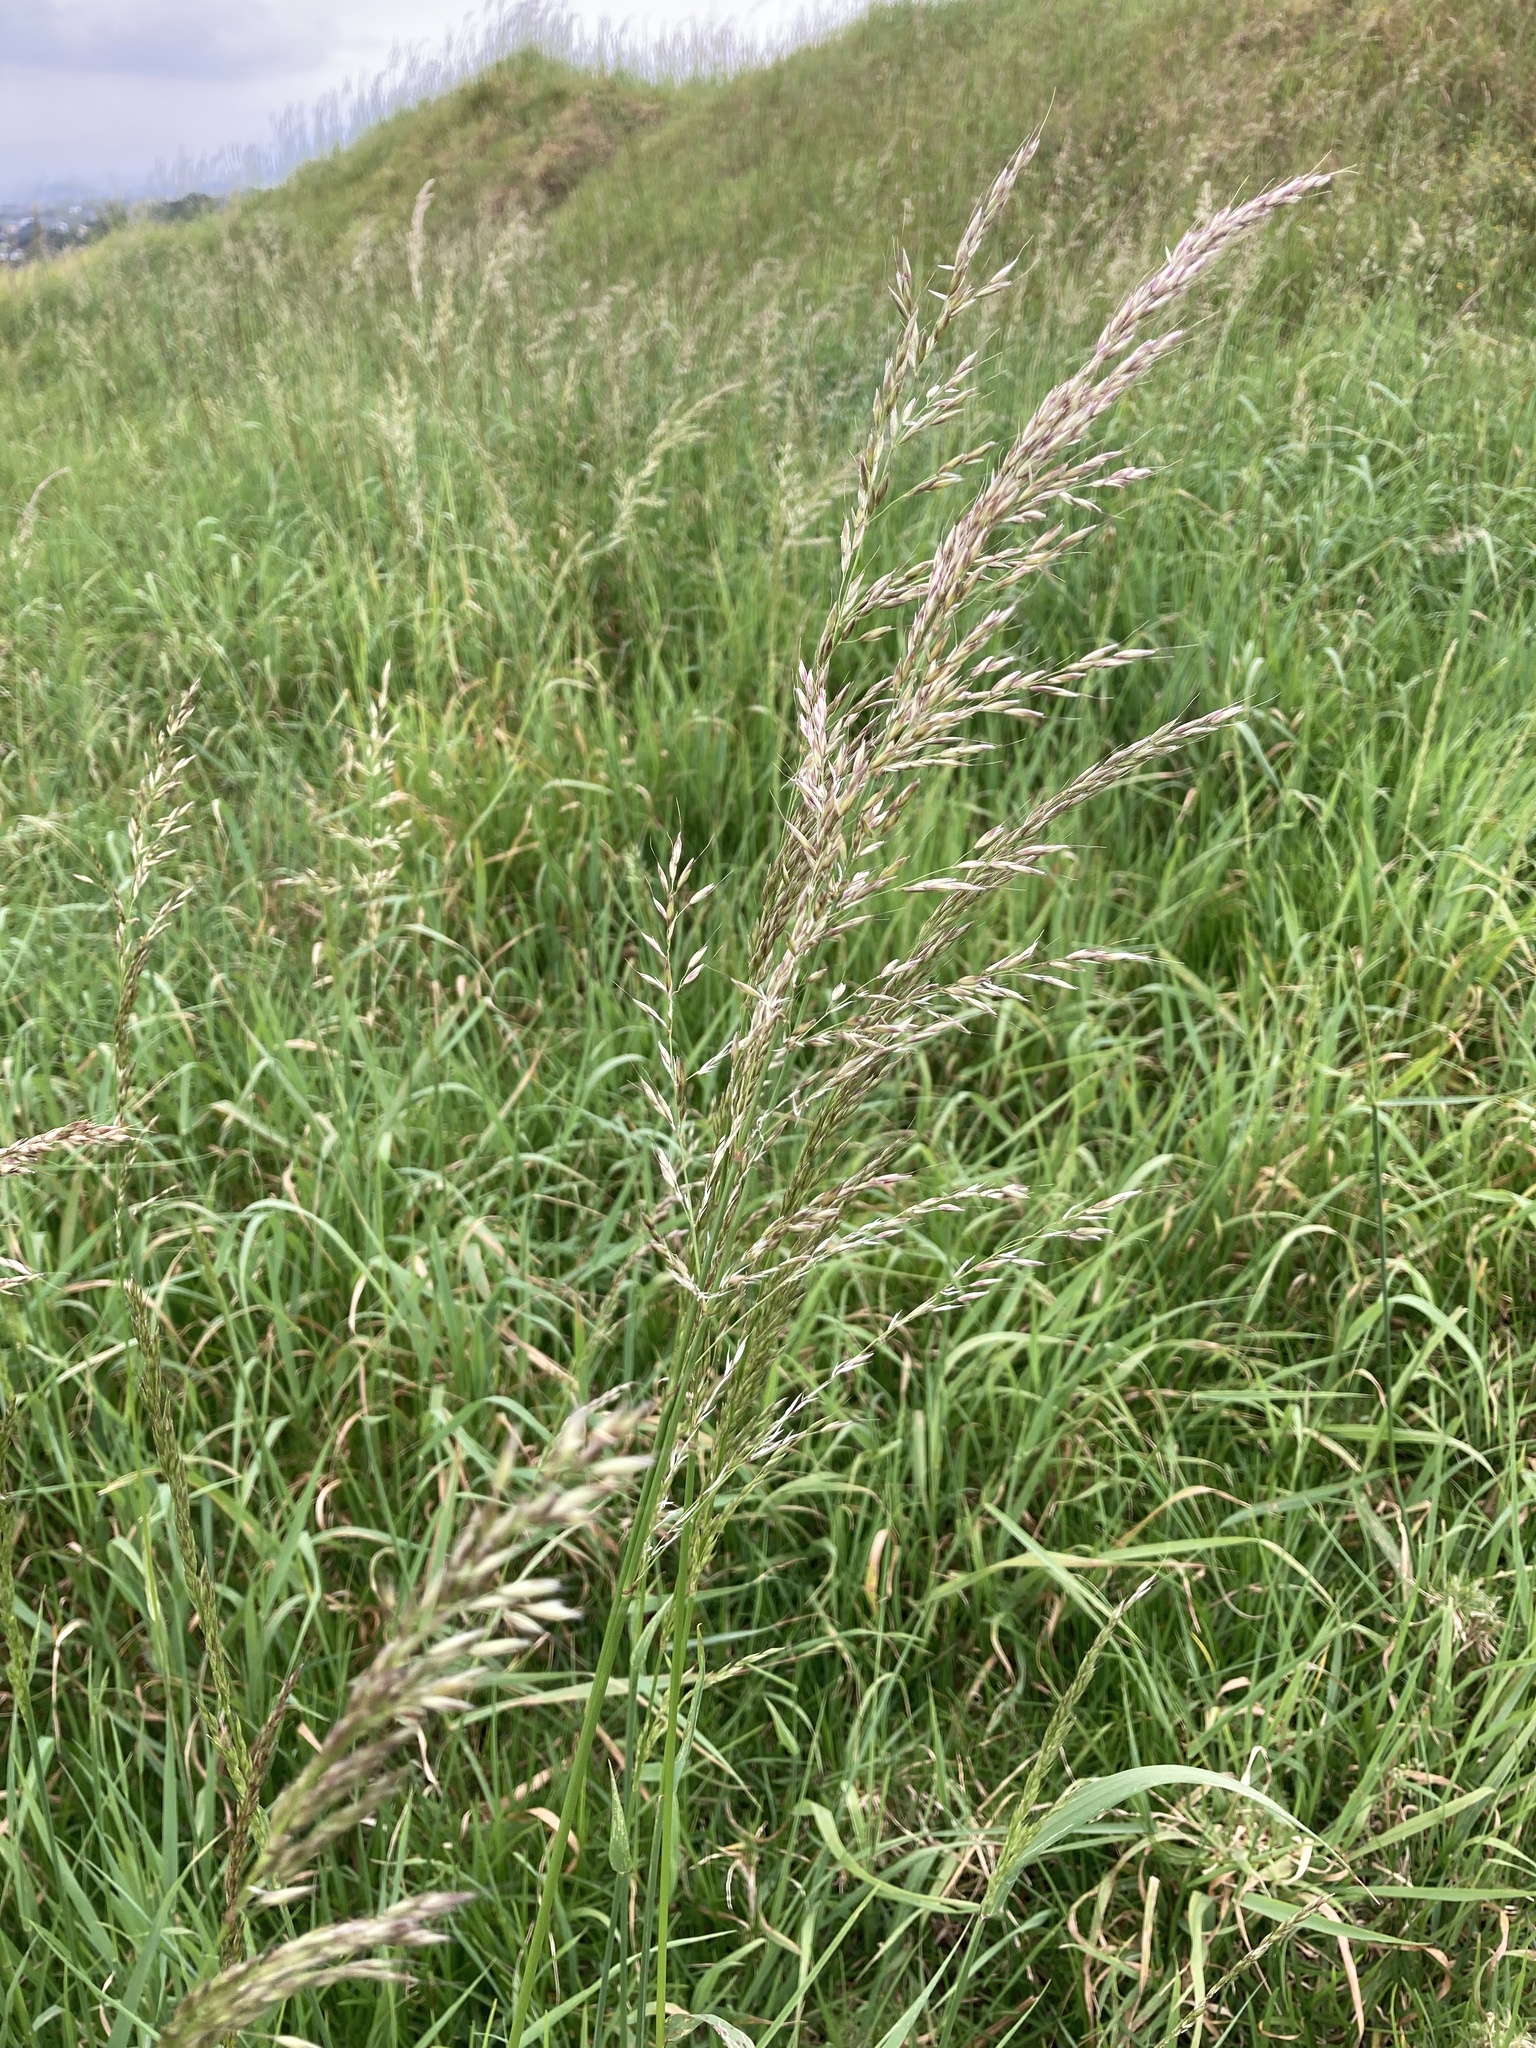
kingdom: Plantae
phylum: Tracheophyta
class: Liliopsida
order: Poales
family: Poaceae
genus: Arrhenatherum
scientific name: Arrhenatherum elatius
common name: Tall oatgrass
